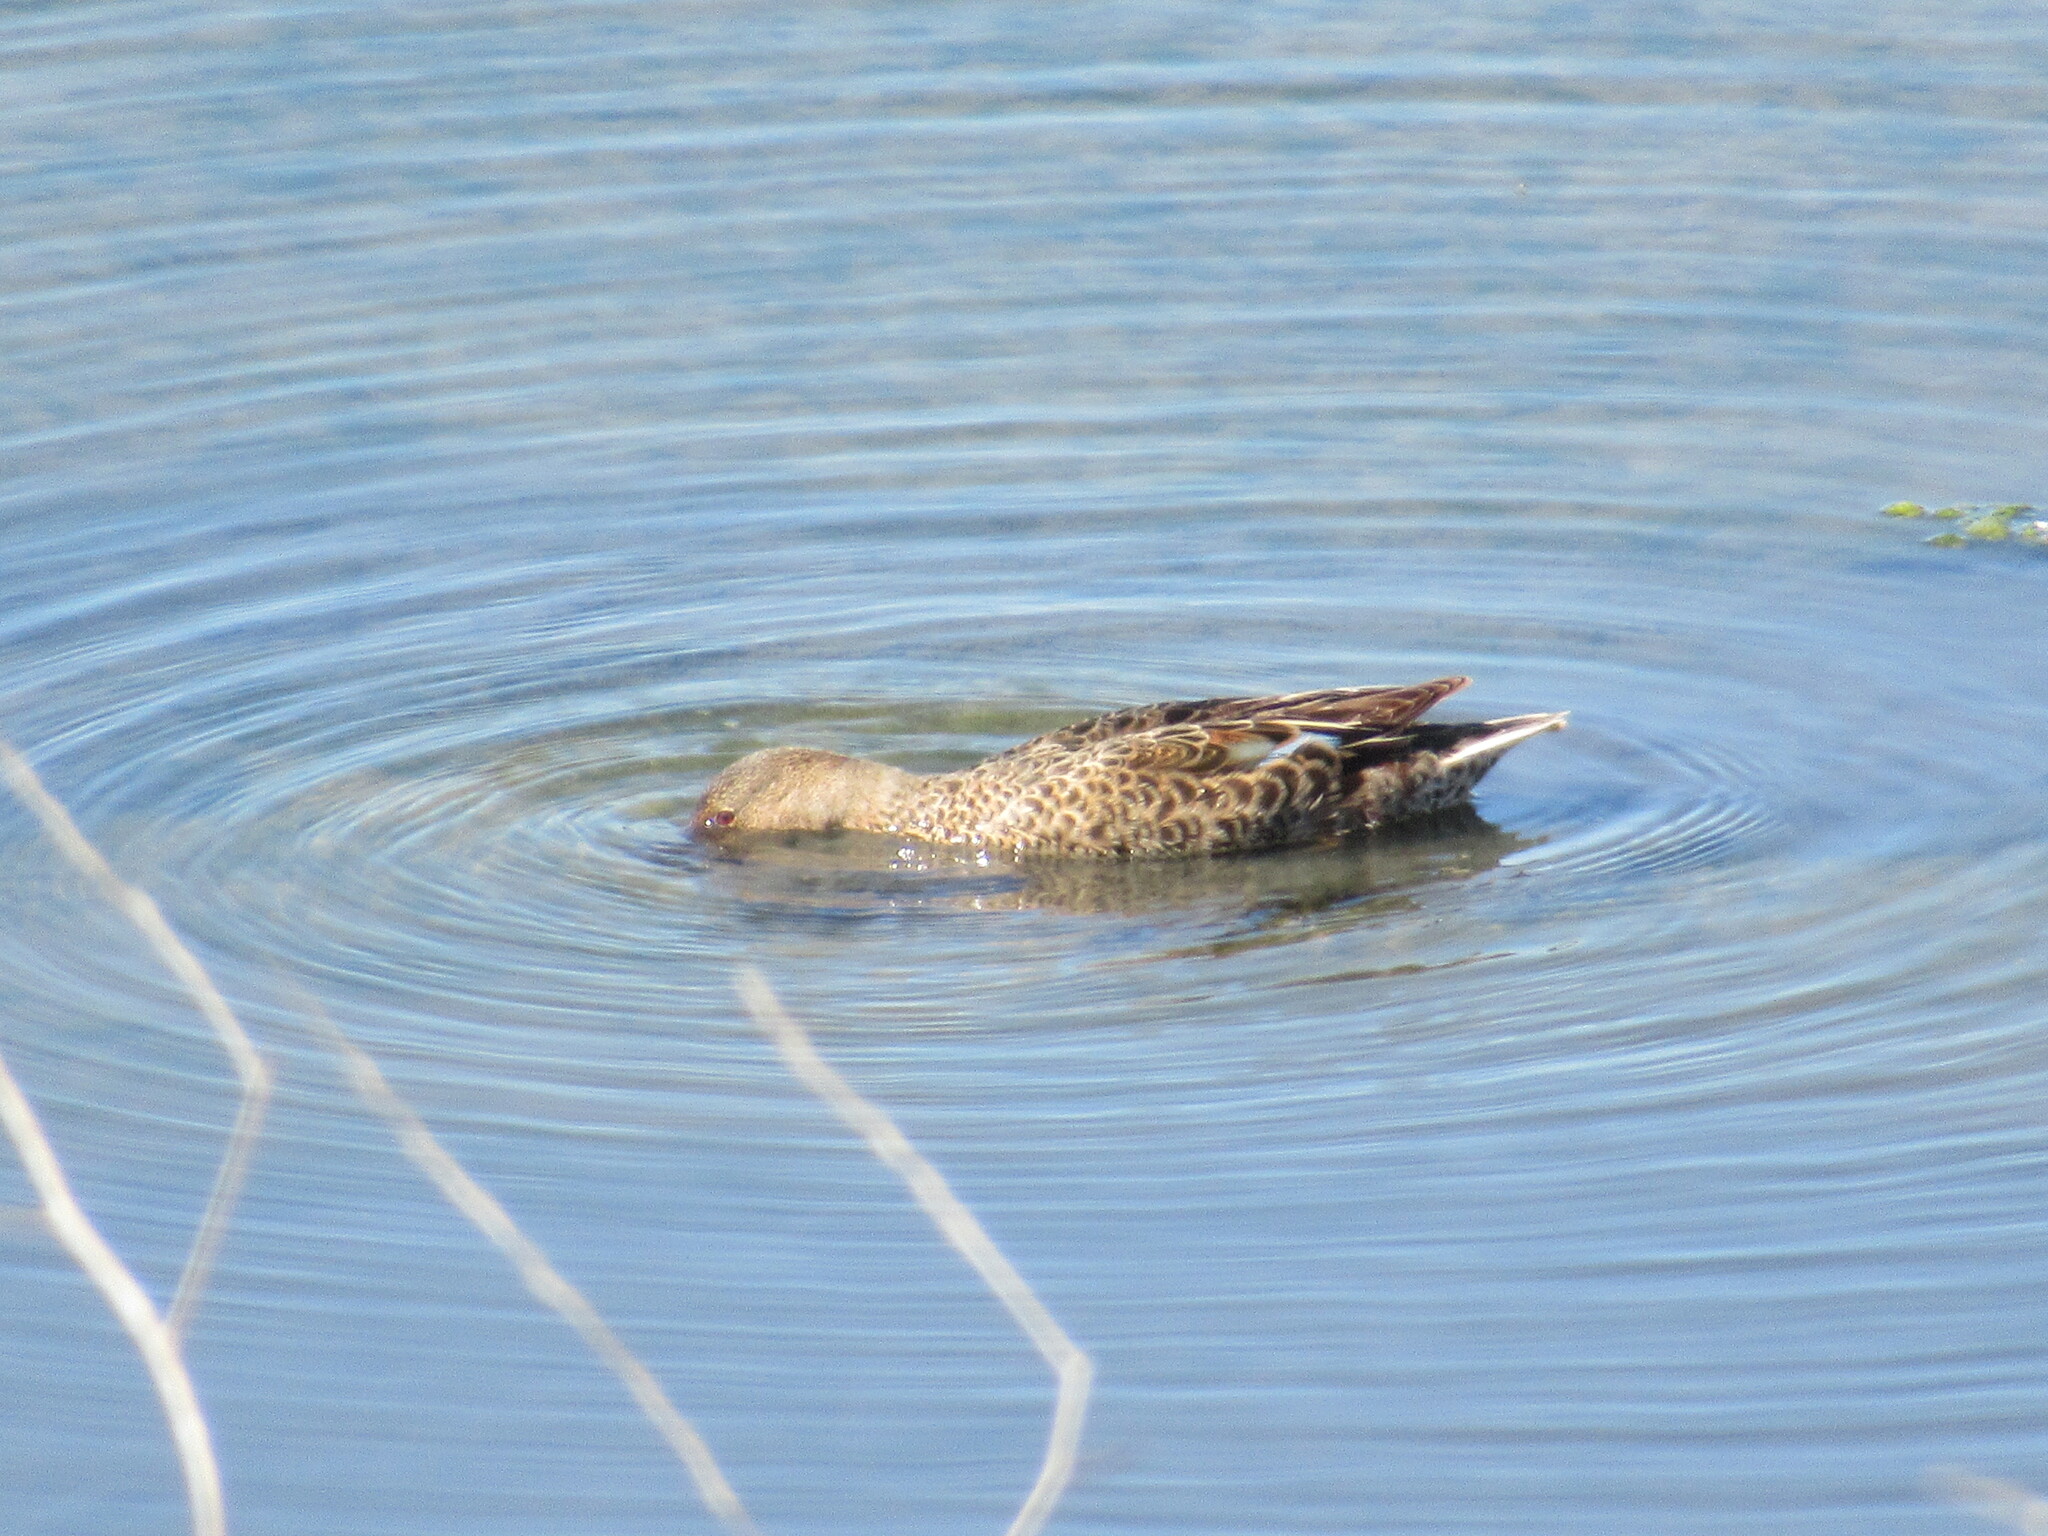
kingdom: Animalia
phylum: Chordata
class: Aves
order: Anseriformes
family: Anatidae
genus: Spatula
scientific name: Spatula cyanoptera
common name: Cinnamon teal
